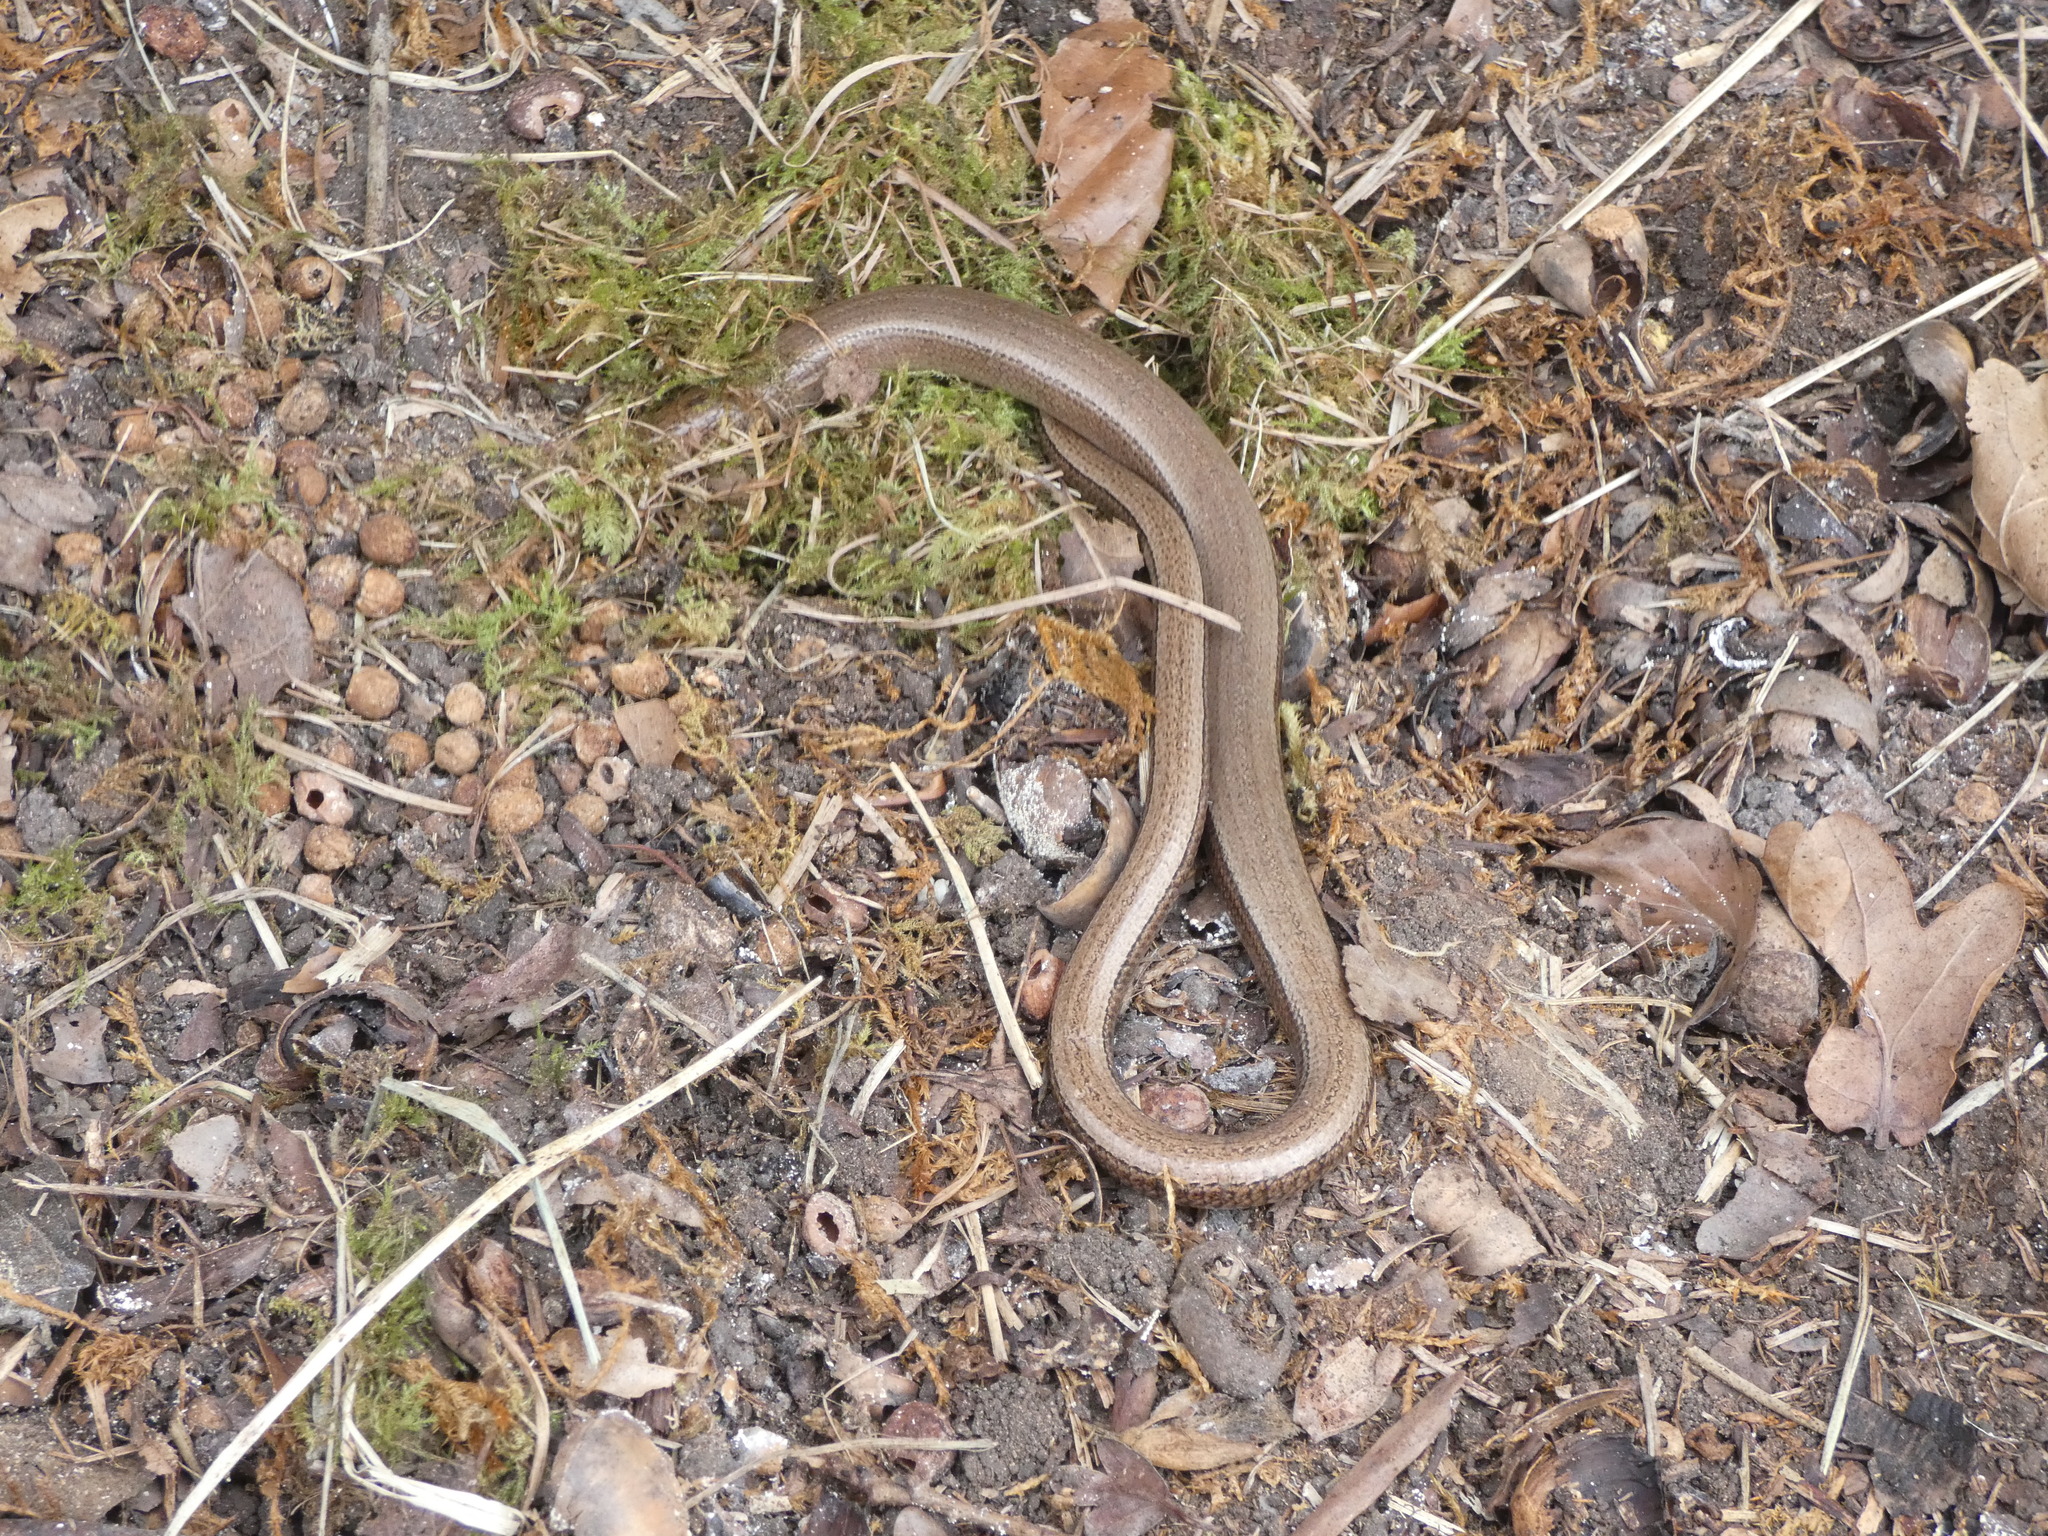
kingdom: Animalia
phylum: Chordata
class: Squamata
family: Anguidae
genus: Anguis
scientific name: Anguis fragilis
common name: Slow worm
